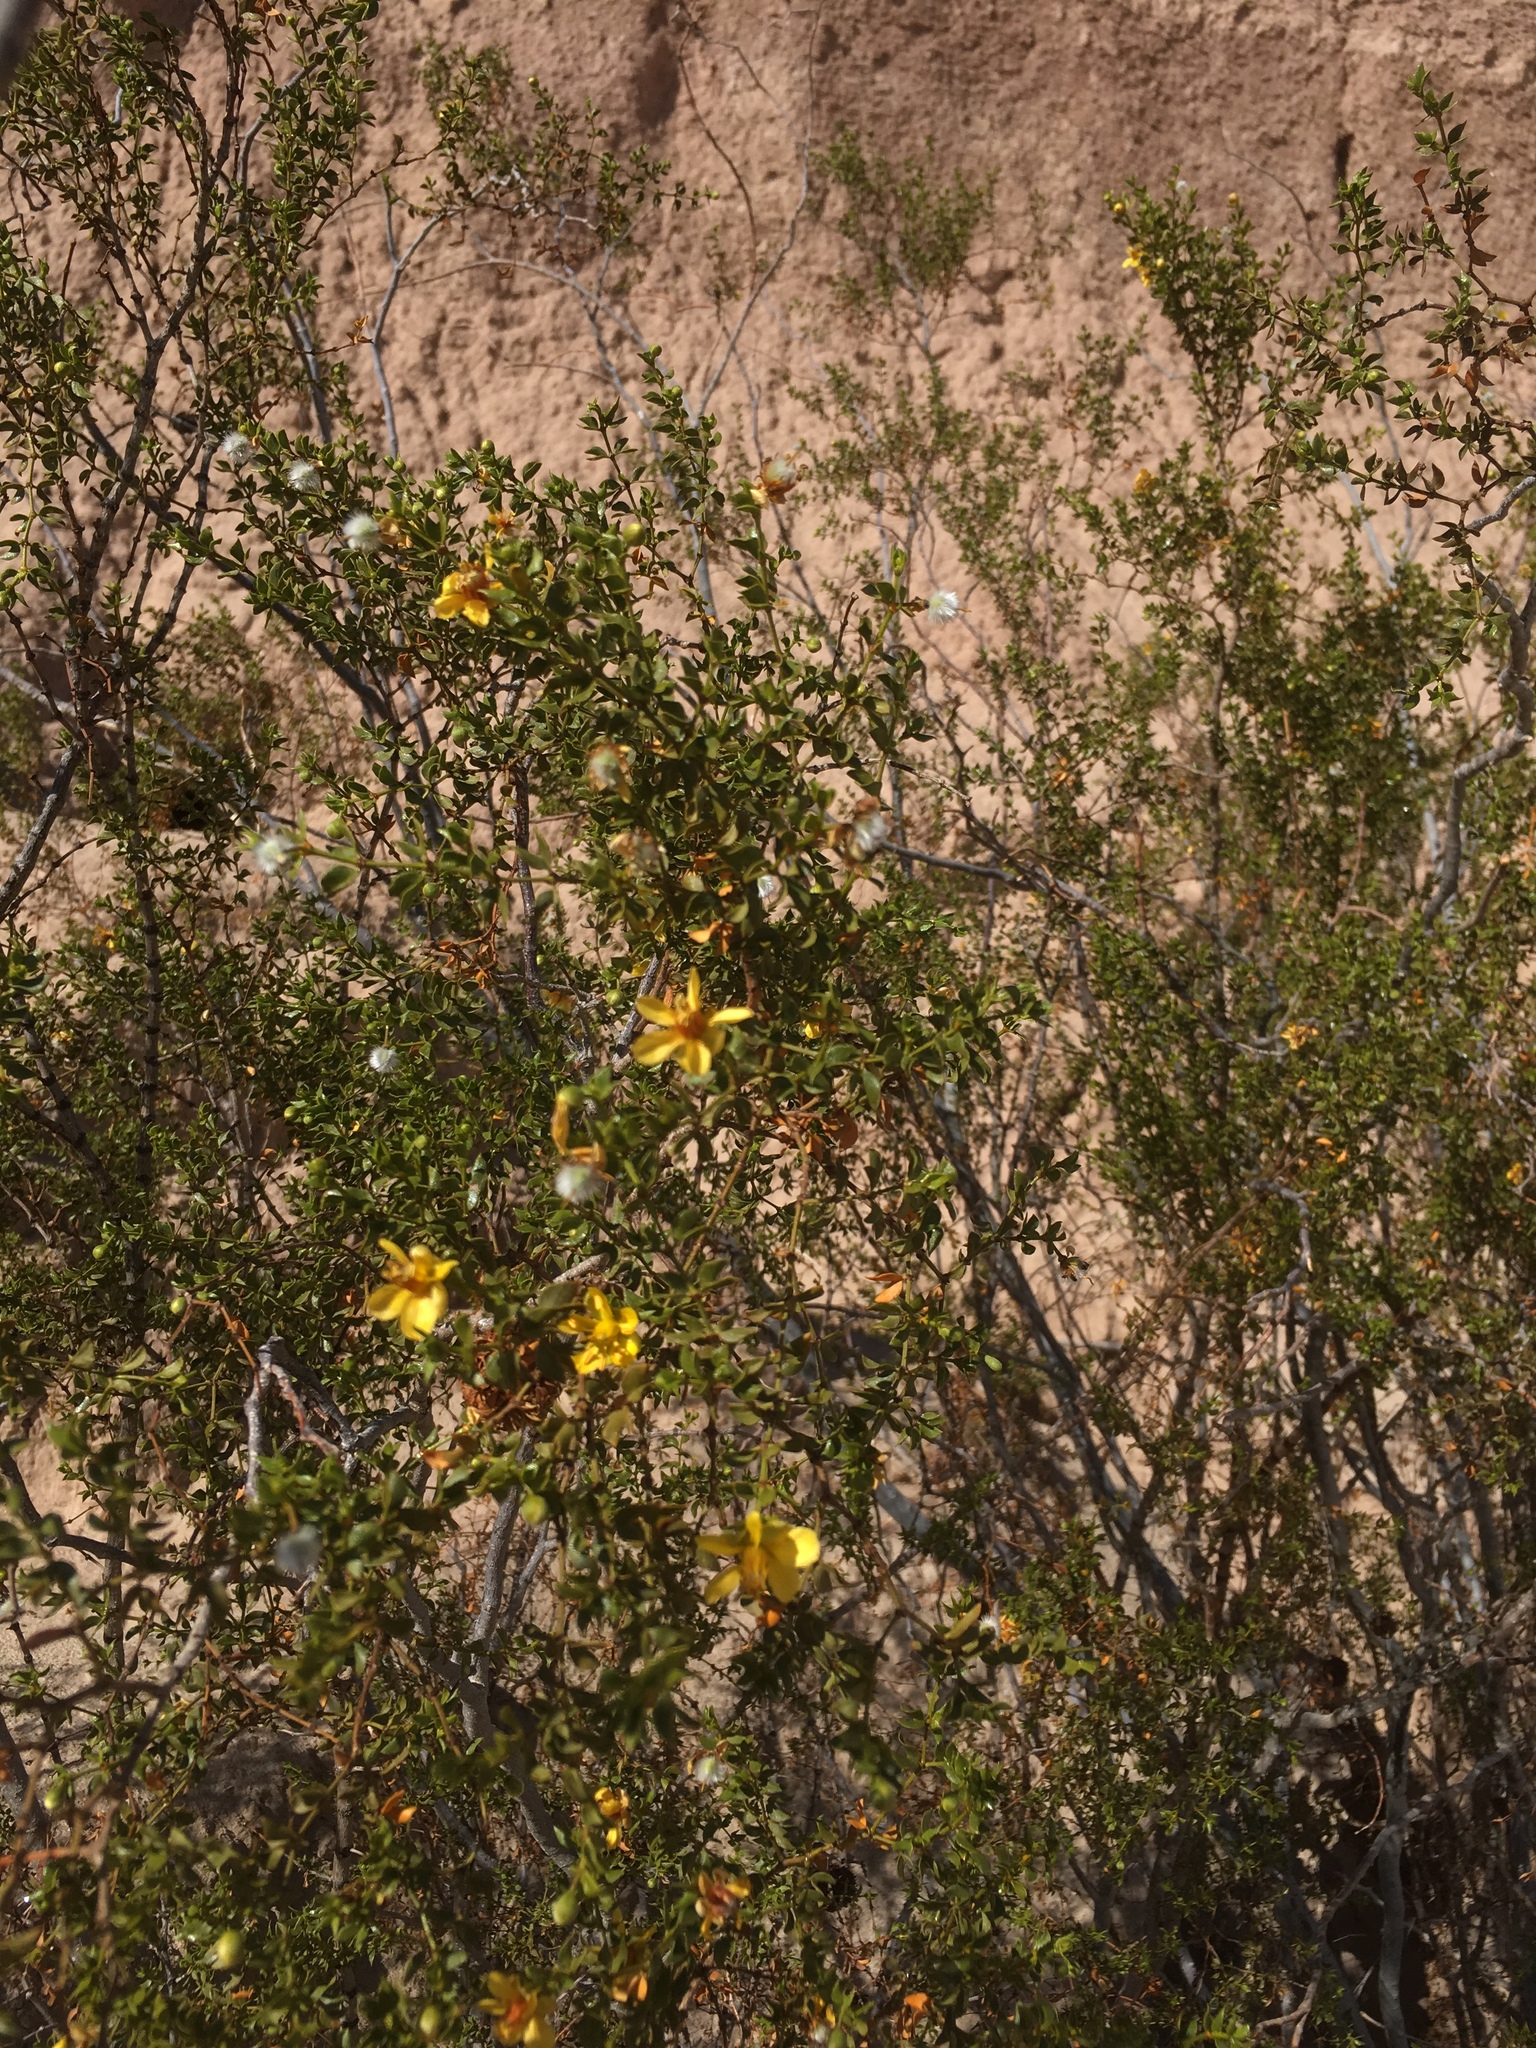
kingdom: Plantae
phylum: Tracheophyta
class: Magnoliopsida
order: Zygophyllales
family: Zygophyllaceae
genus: Larrea
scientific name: Larrea tridentata
